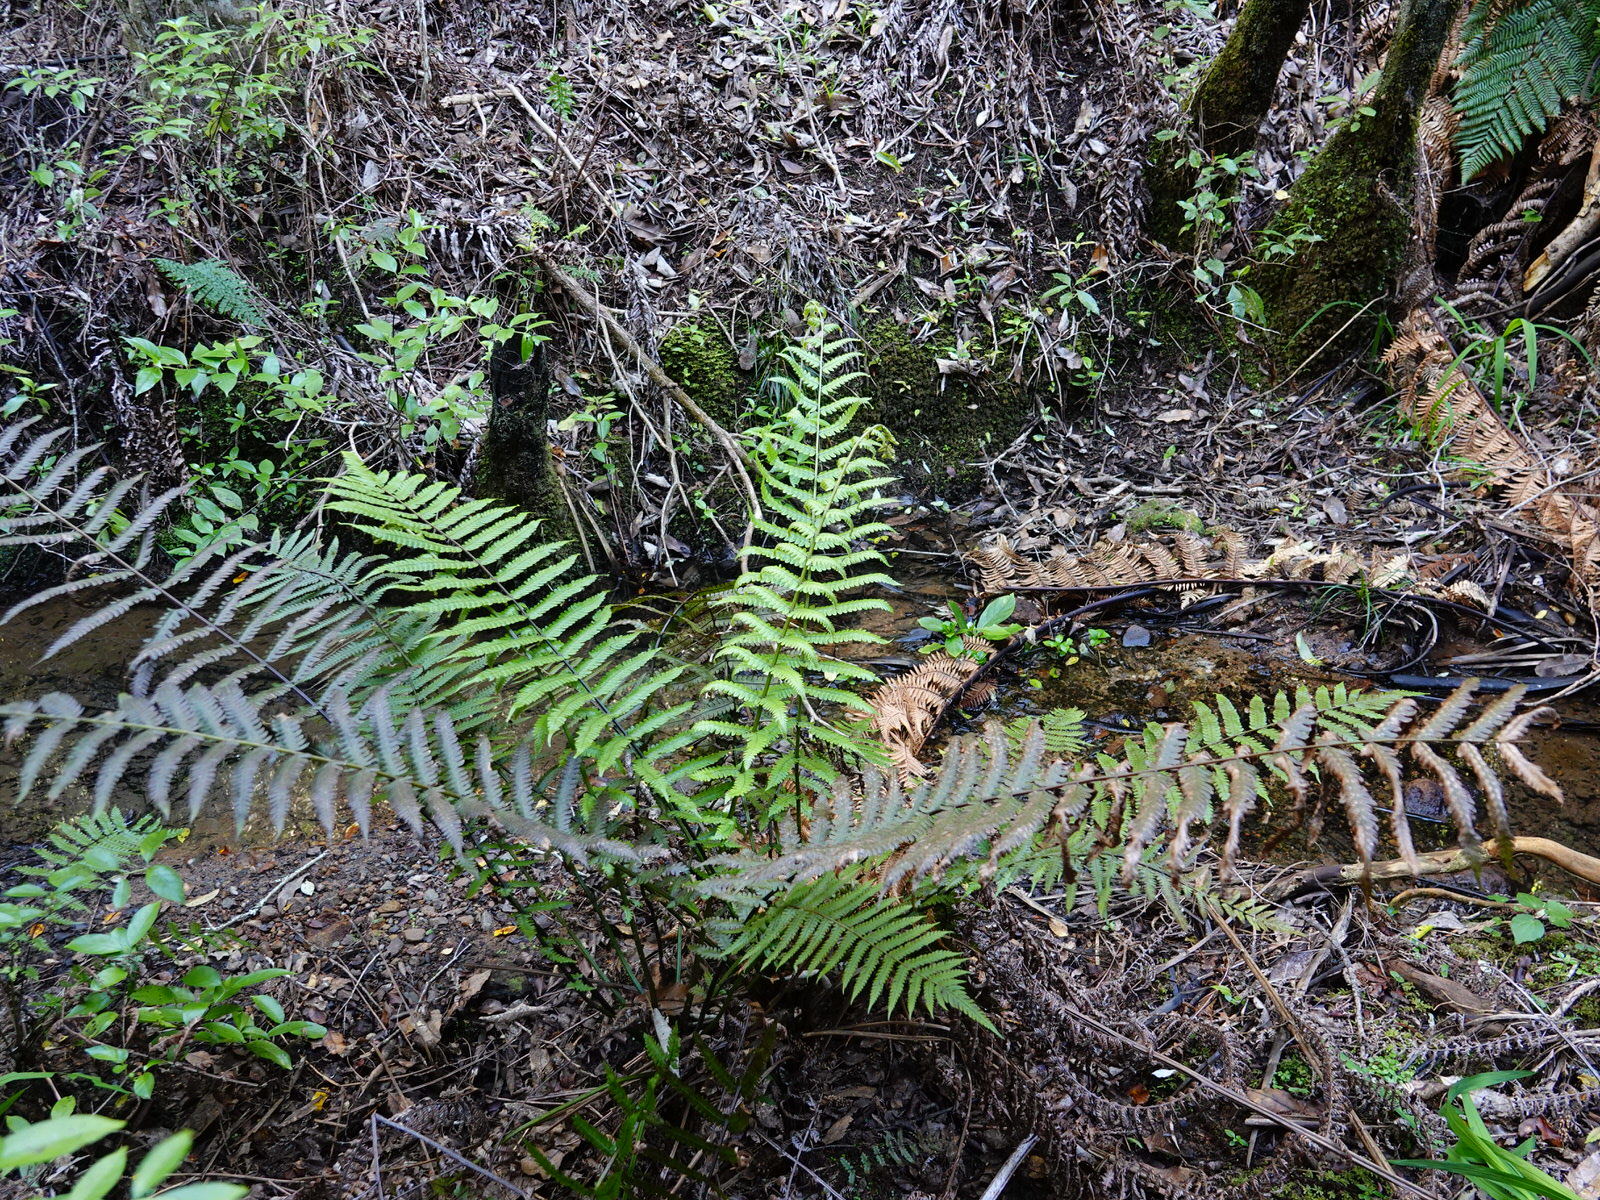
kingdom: Plantae
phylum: Tracheophyta
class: Polypodiopsida
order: Polypodiales
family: Thelypteridaceae
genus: Pakau
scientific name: Pakau pennigera
